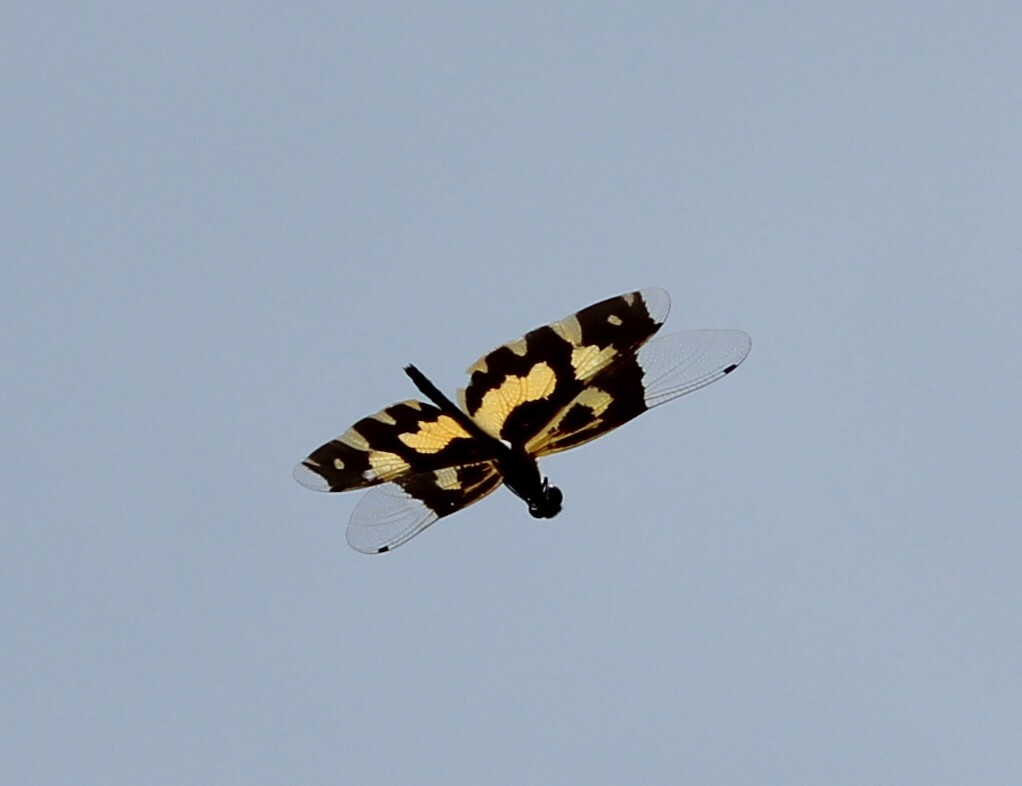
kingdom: Animalia
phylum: Arthropoda
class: Insecta
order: Odonata
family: Libellulidae
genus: Rhyothemis
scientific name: Rhyothemis variegata
